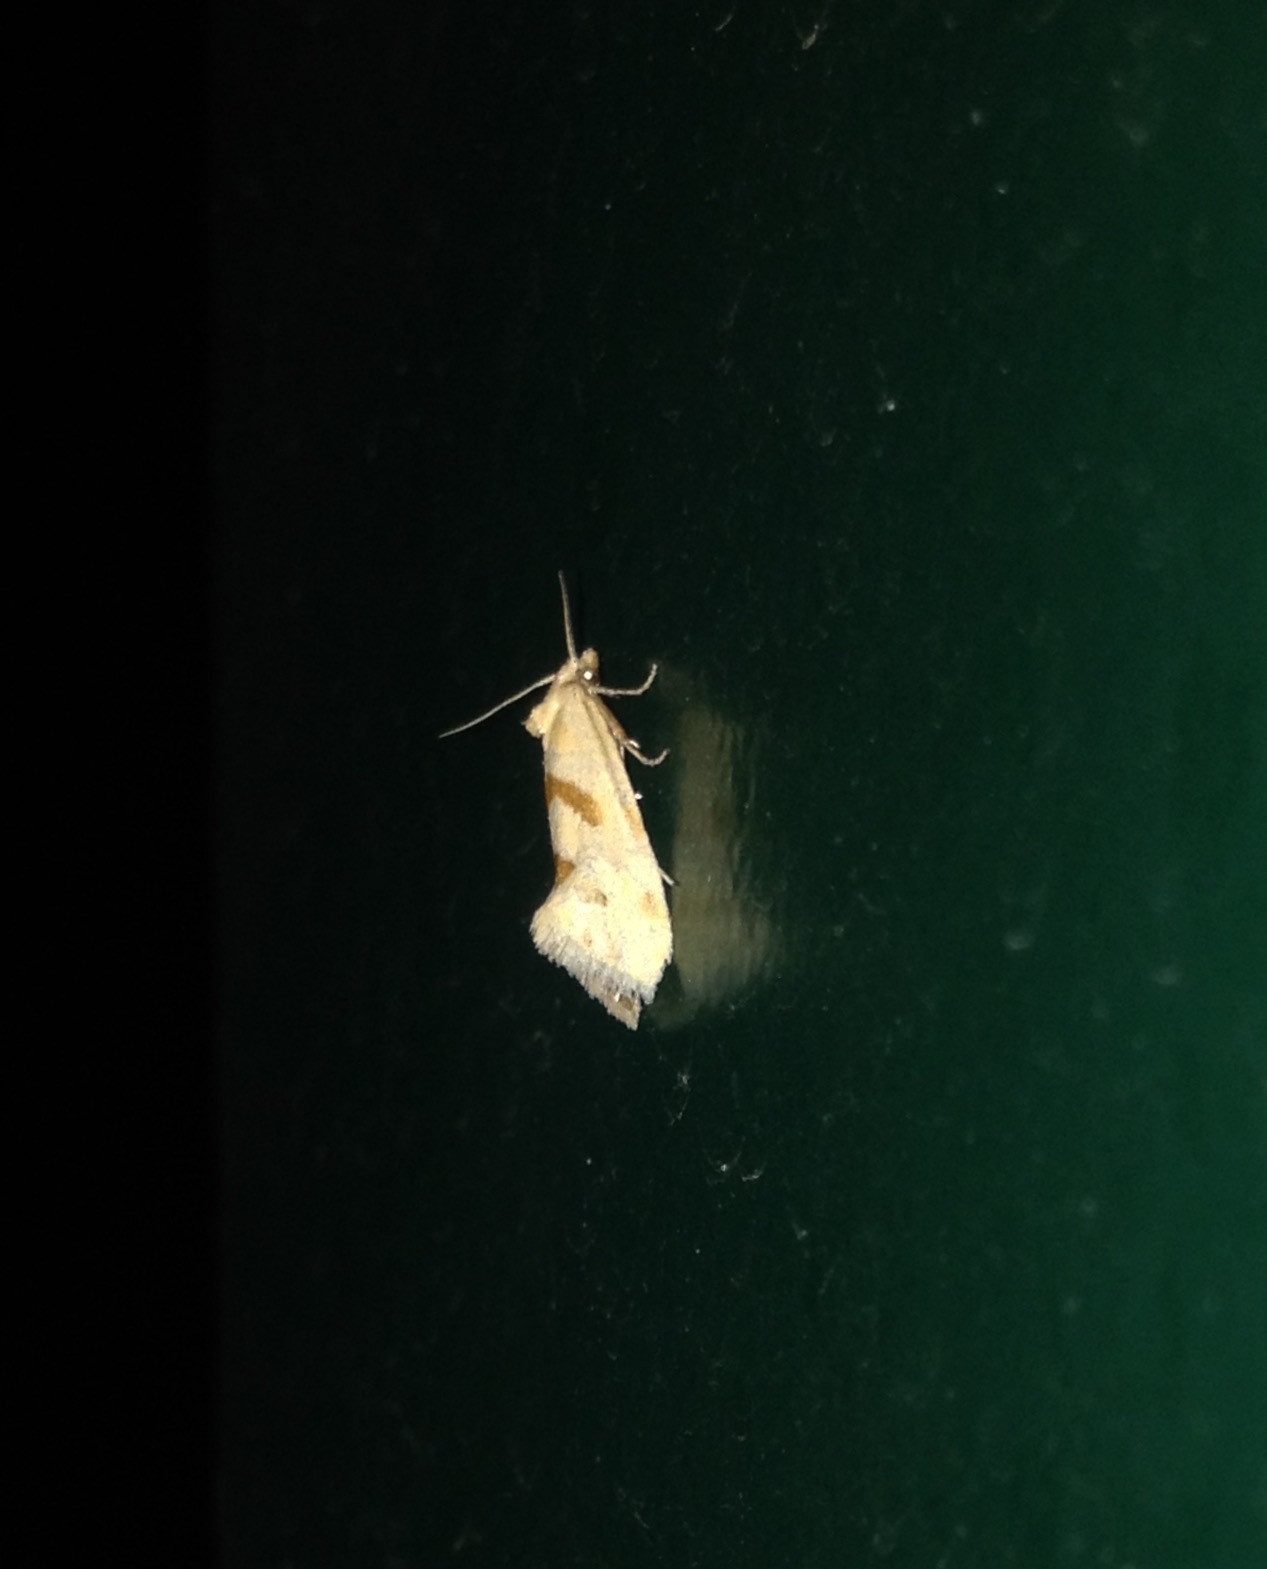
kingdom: Animalia
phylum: Arthropoda
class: Insecta
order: Lepidoptera
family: Tortricidae
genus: Aethes
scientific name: Aethes smeathmanniana
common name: Yarrow conch
